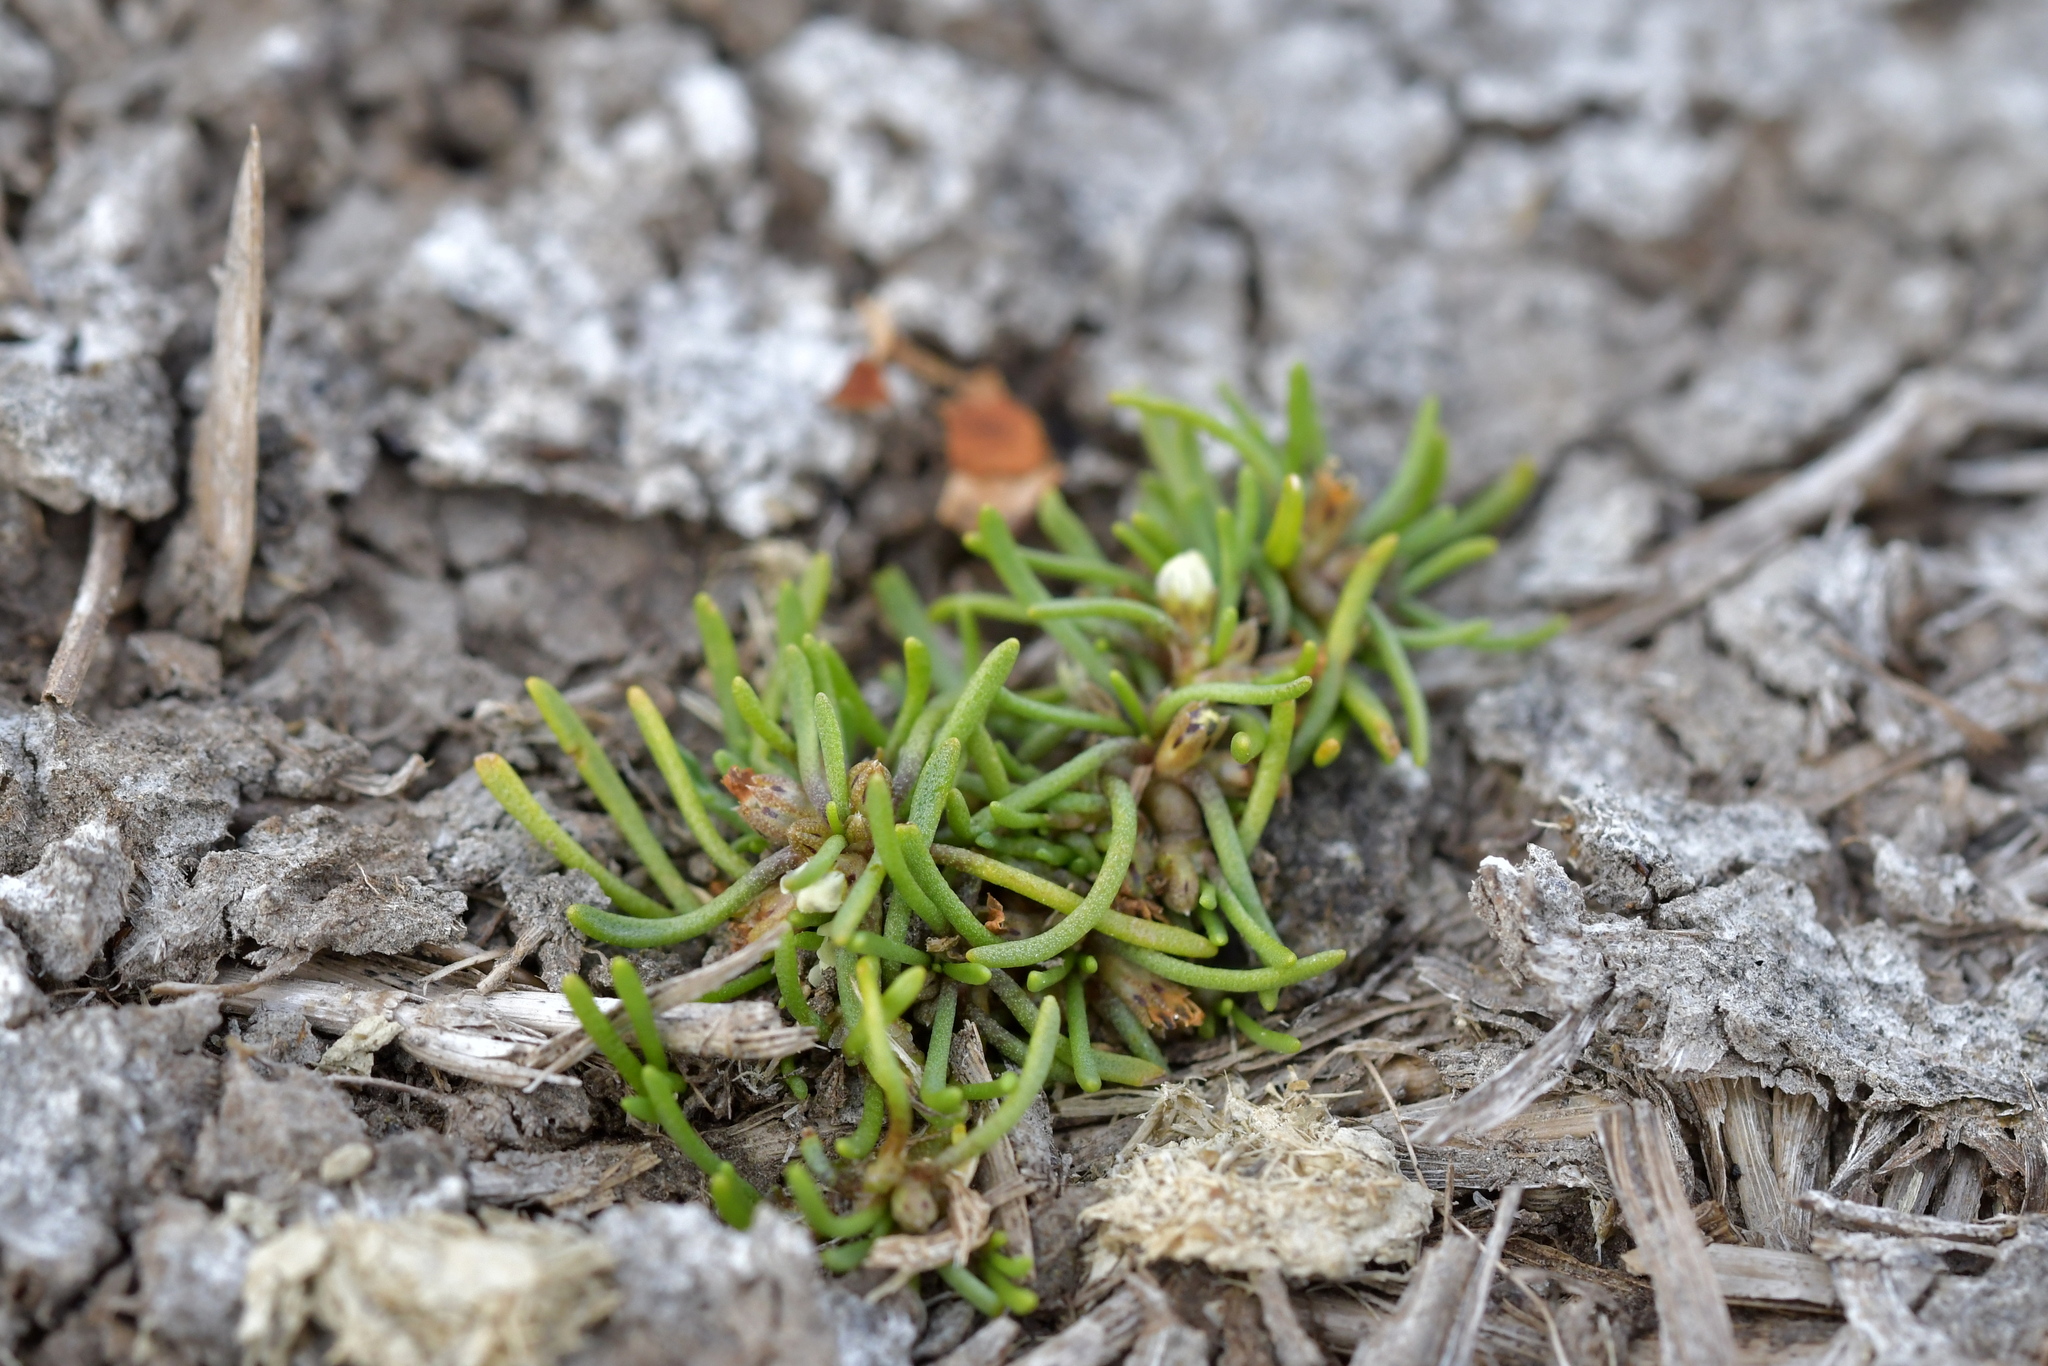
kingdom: Plantae
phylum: Tracheophyta
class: Magnoliopsida
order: Lamiales
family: Scrophulariaceae
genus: Limosella
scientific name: Limosella australis
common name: Welsh mudwort
